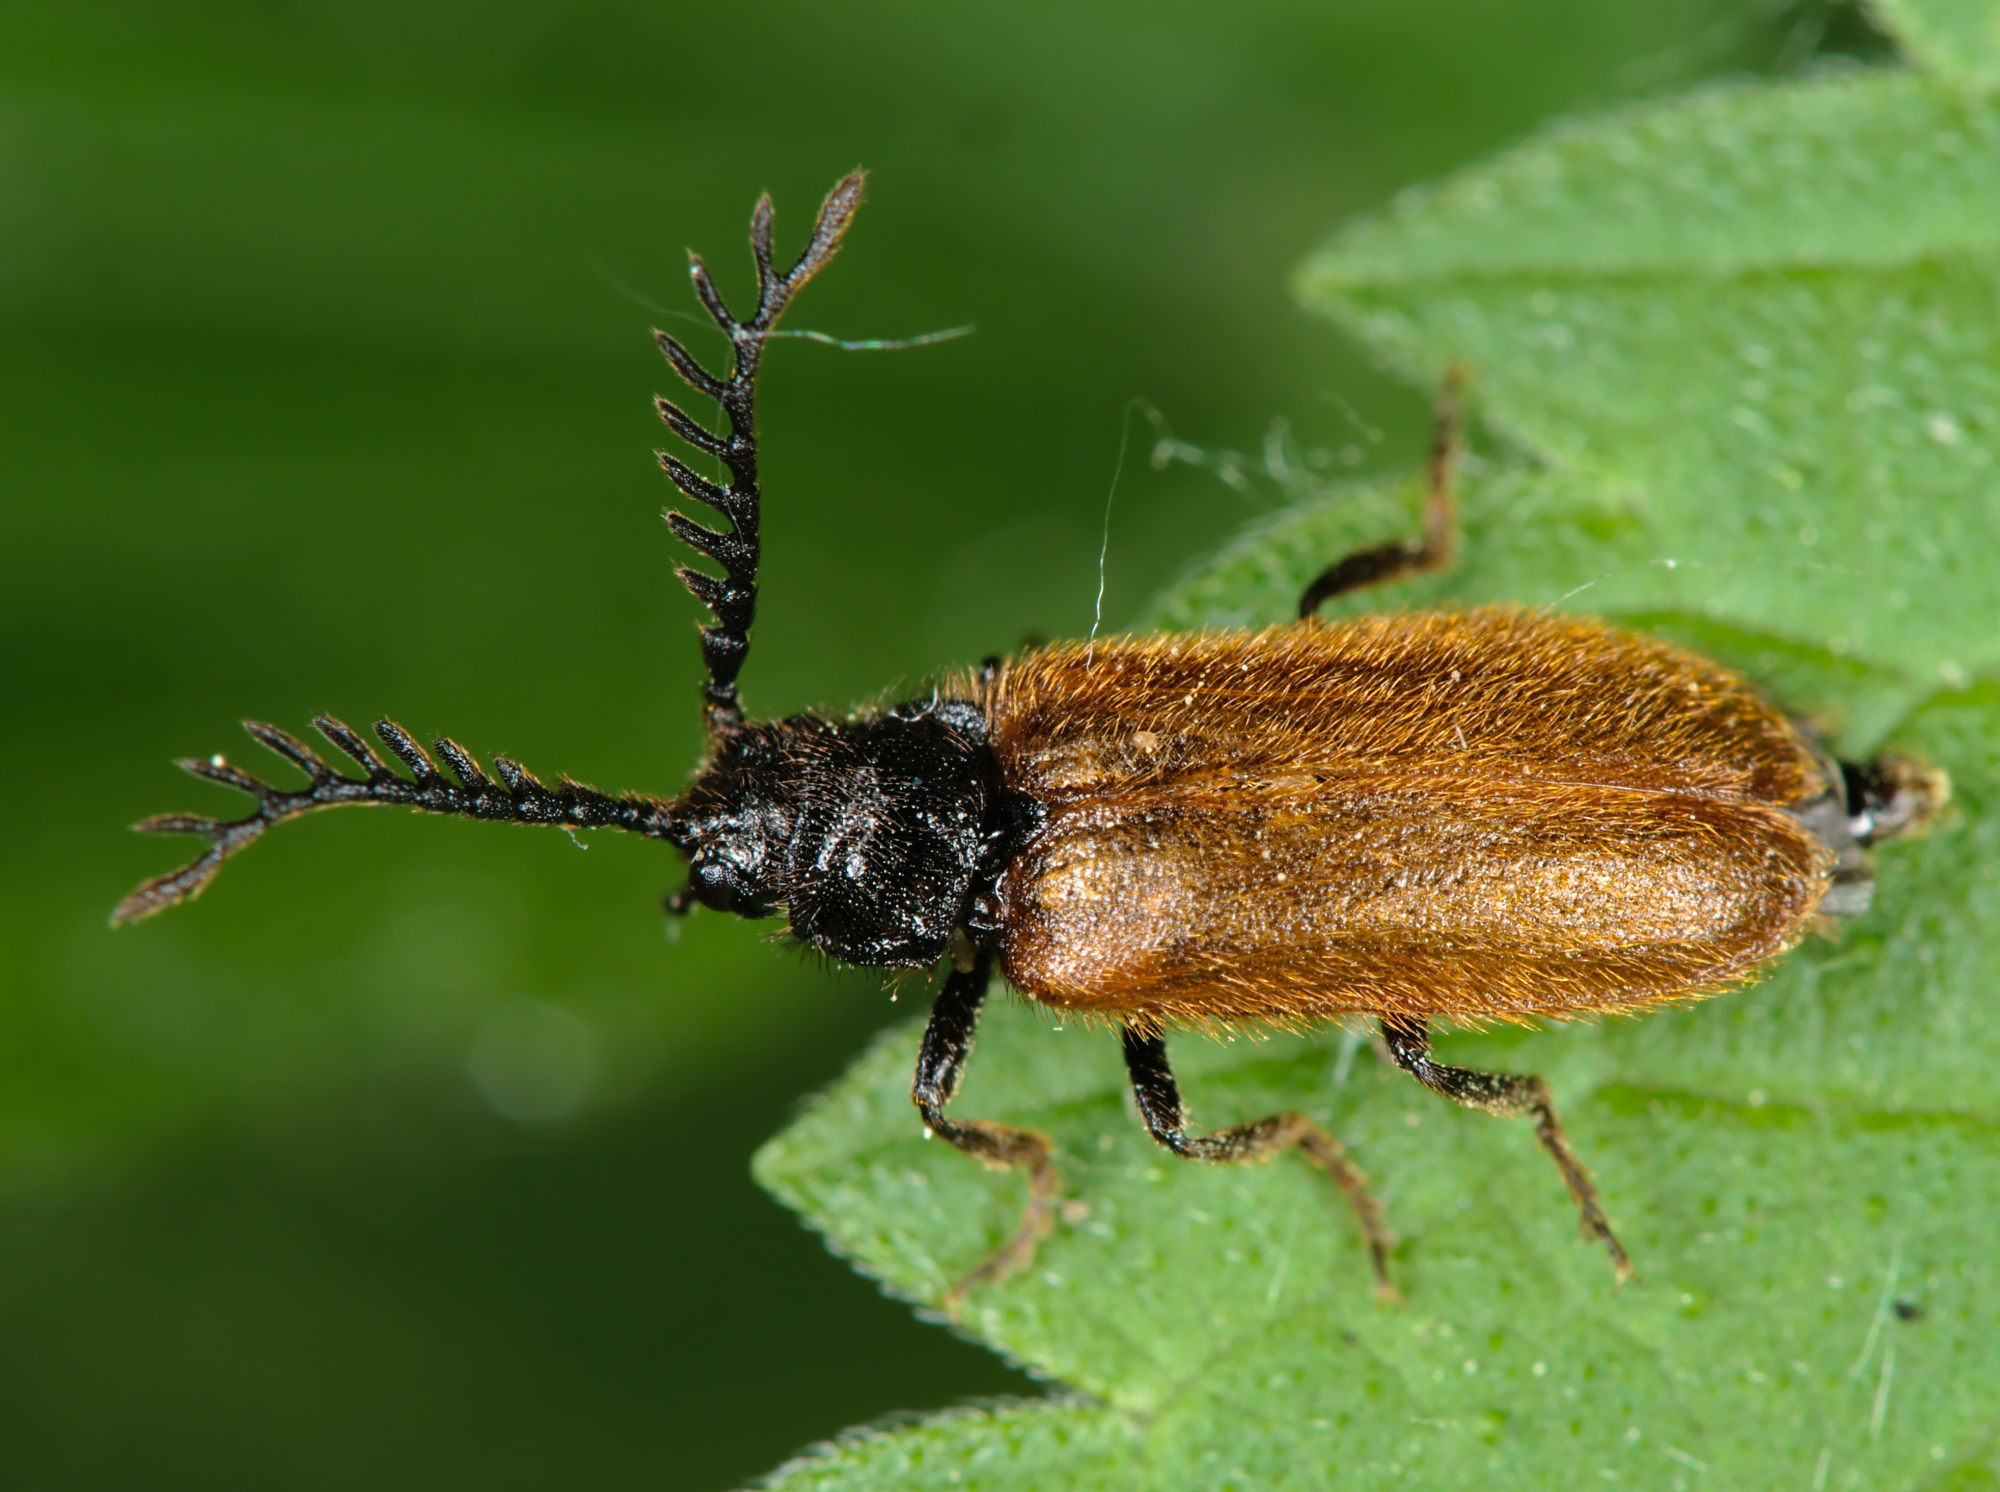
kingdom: Animalia
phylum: Arthropoda
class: Insecta
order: Coleoptera
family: Drilidae
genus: Drilus
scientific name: Drilus flavescens
